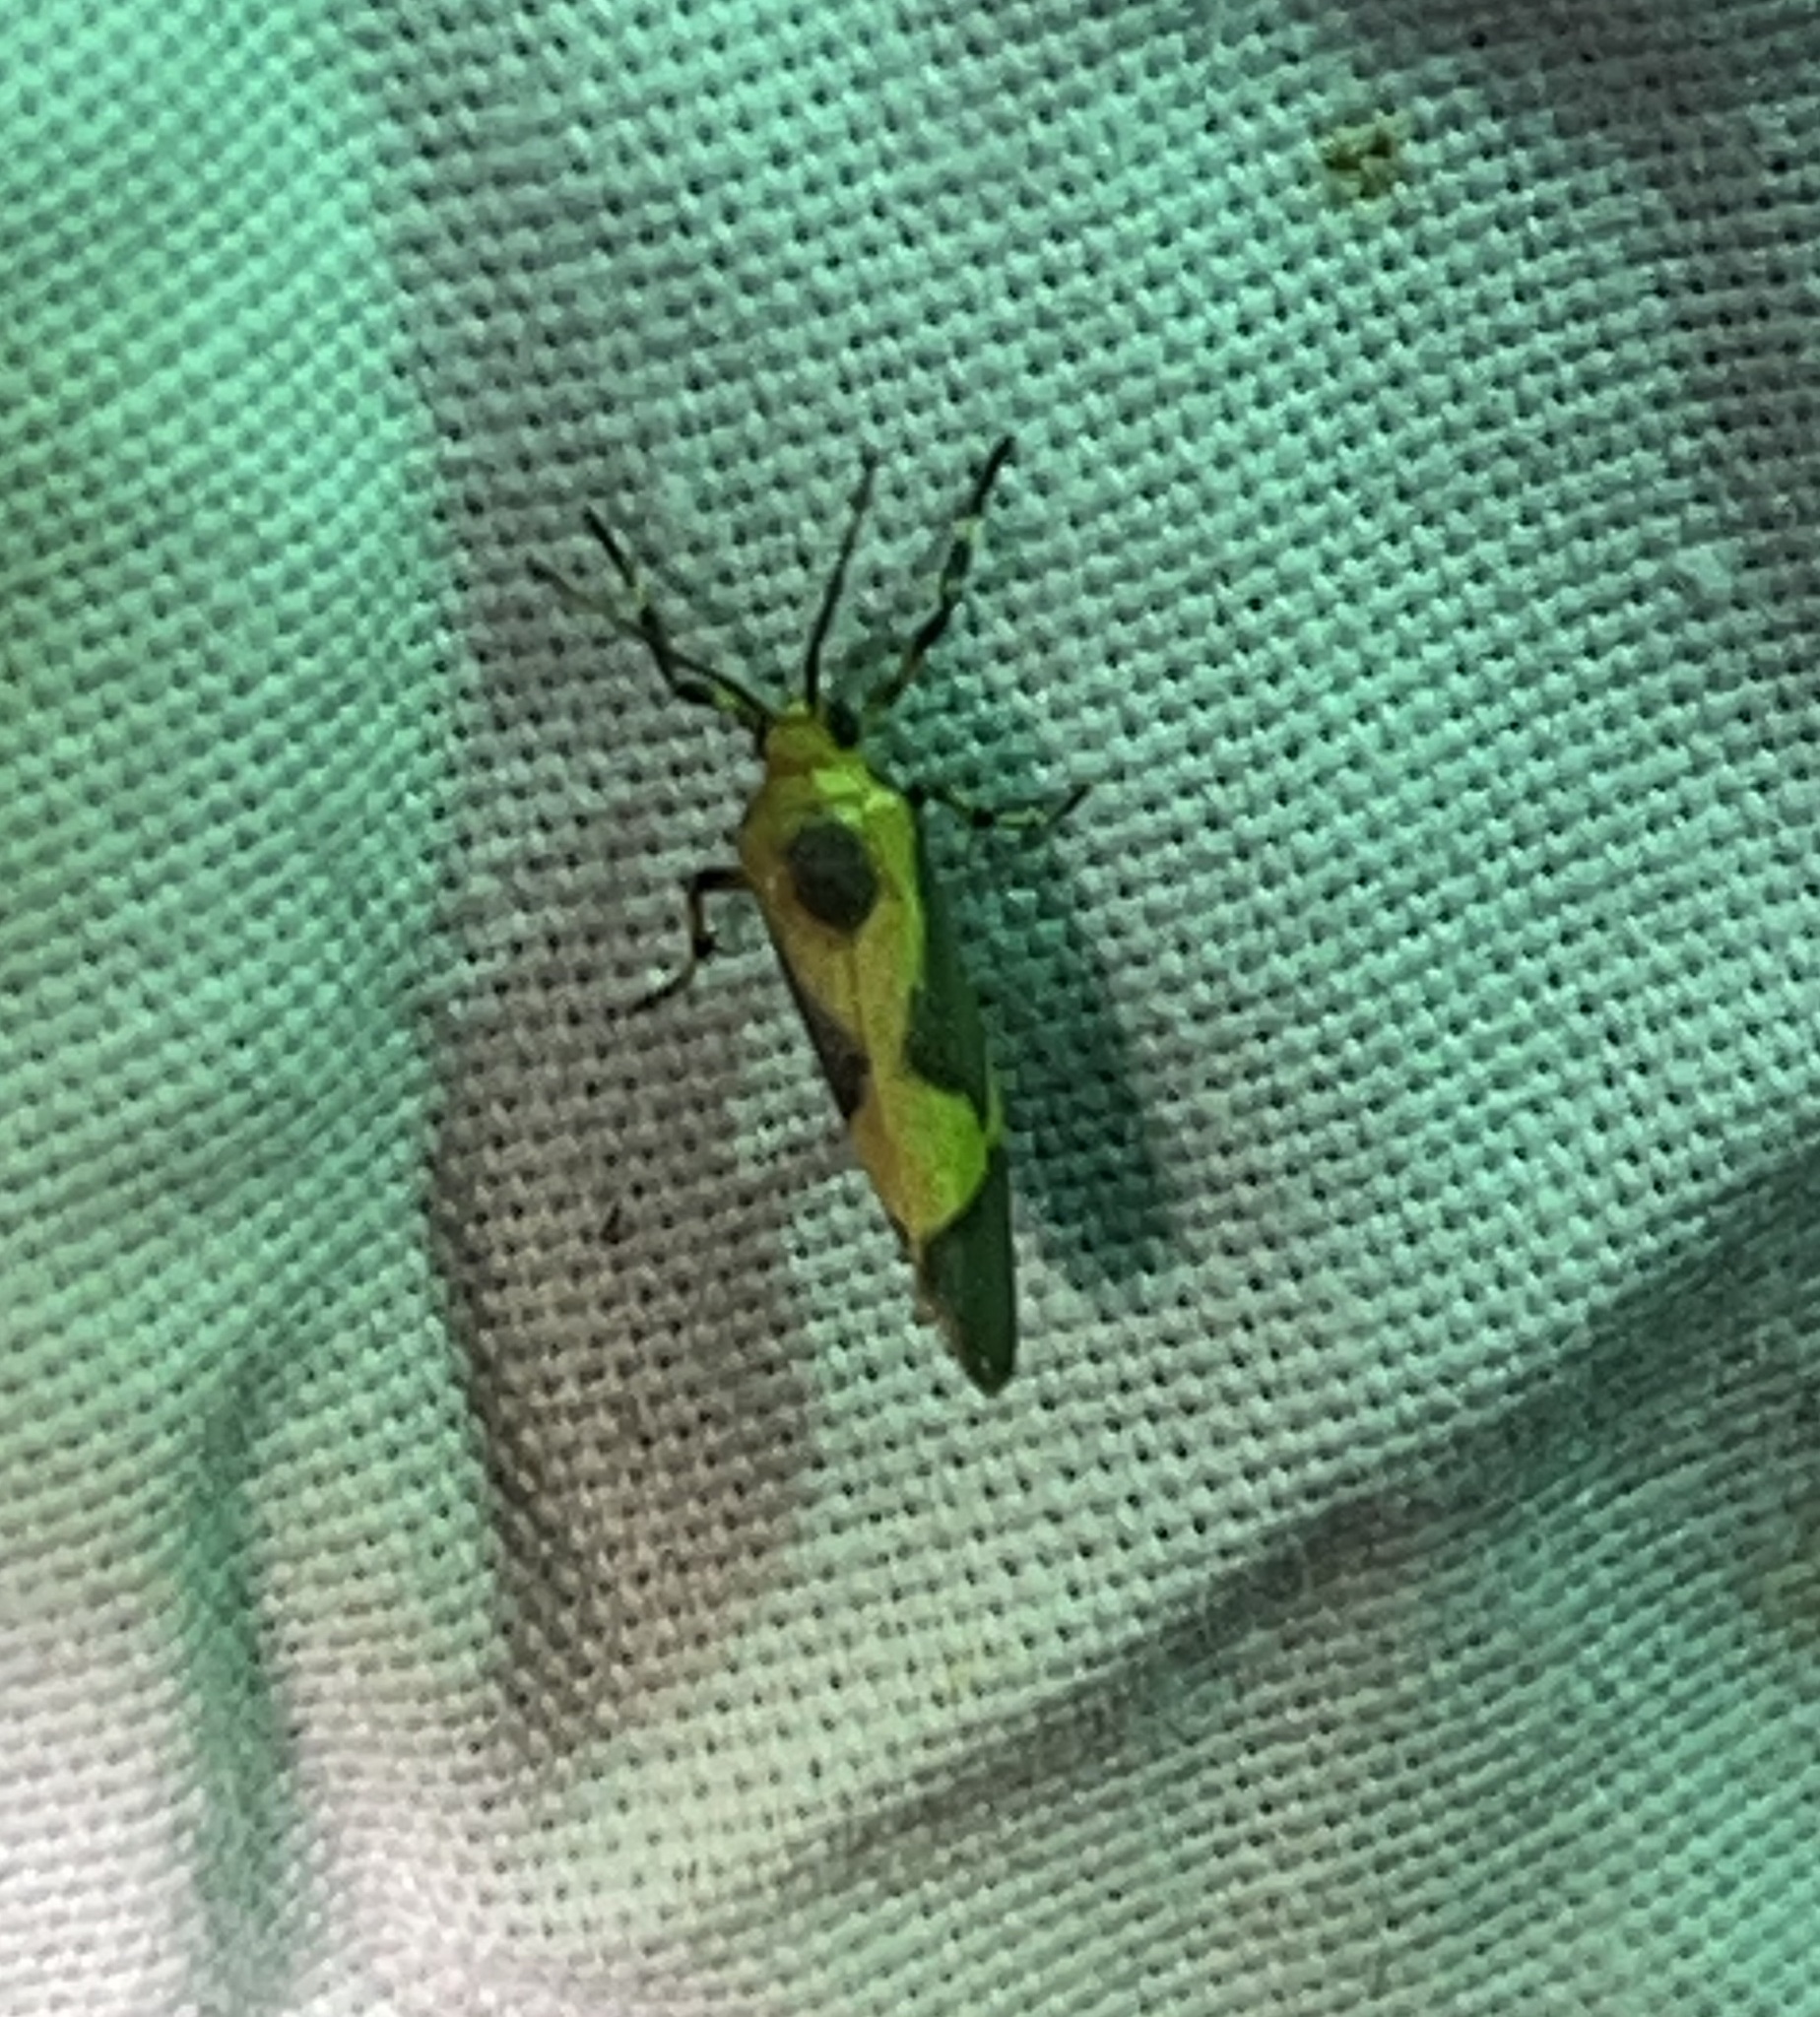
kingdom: Animalia
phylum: Arthropoda
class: Insecta
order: Lepidoptera
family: Erebidae
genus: Cisthene
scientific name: Cisthene unifascia
